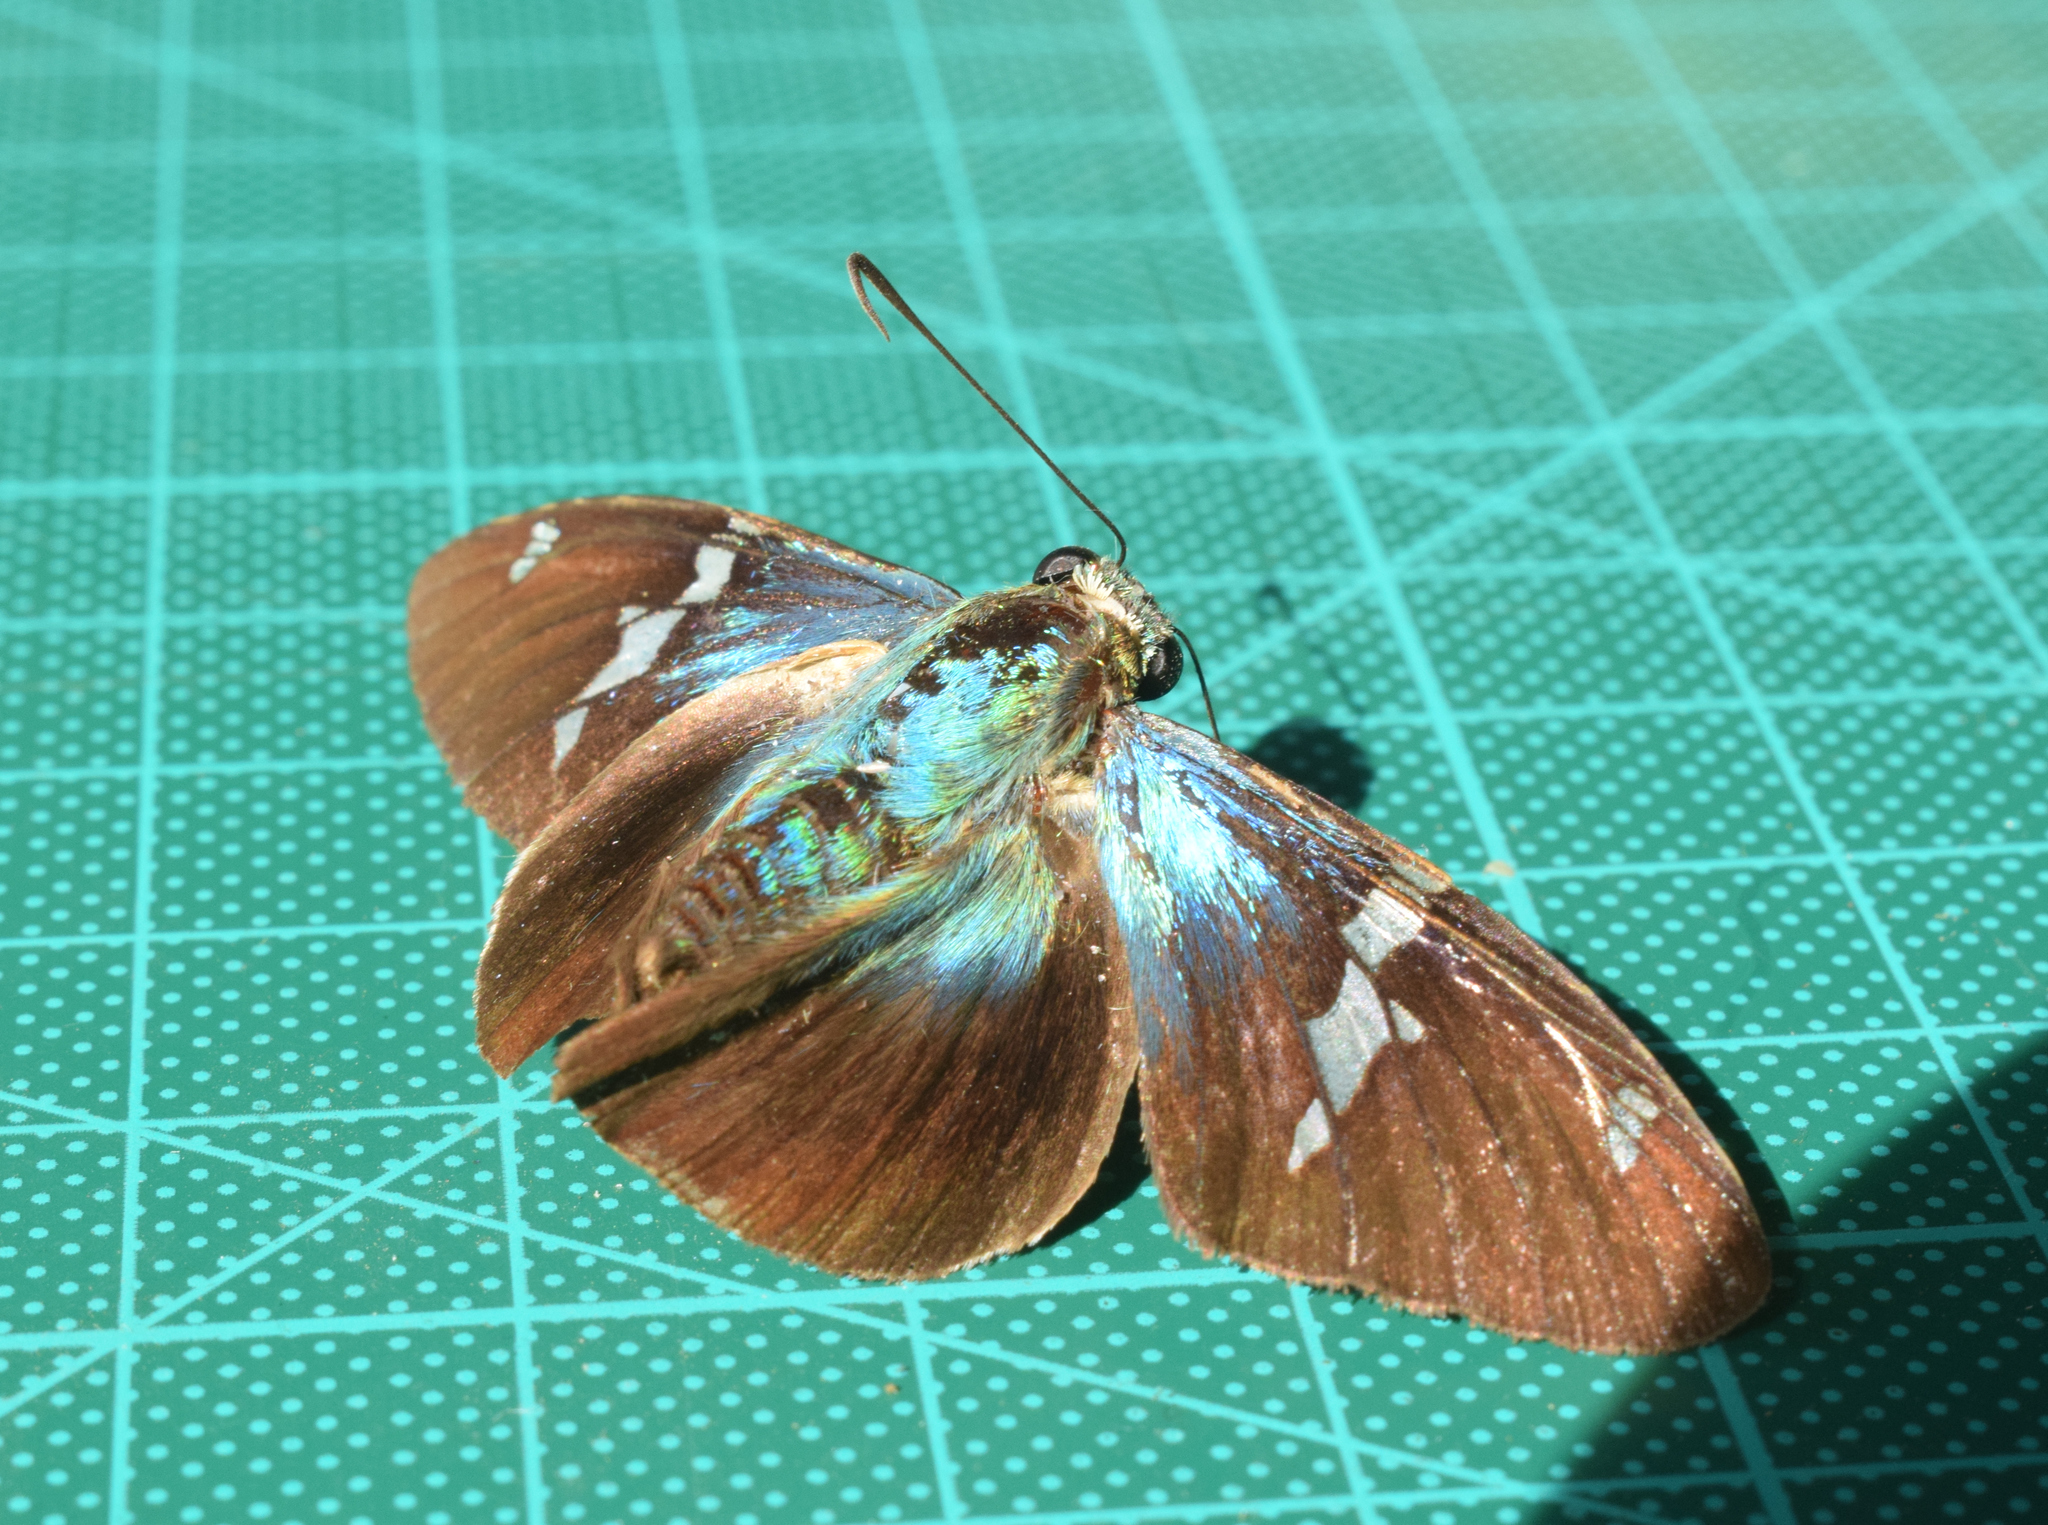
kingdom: Animalia
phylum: Arthropoda
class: Insecta
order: Lepidoptera
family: Hesperiidae
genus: Astraptes
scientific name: Astraptes fulgerator
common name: Two-barred flasher
